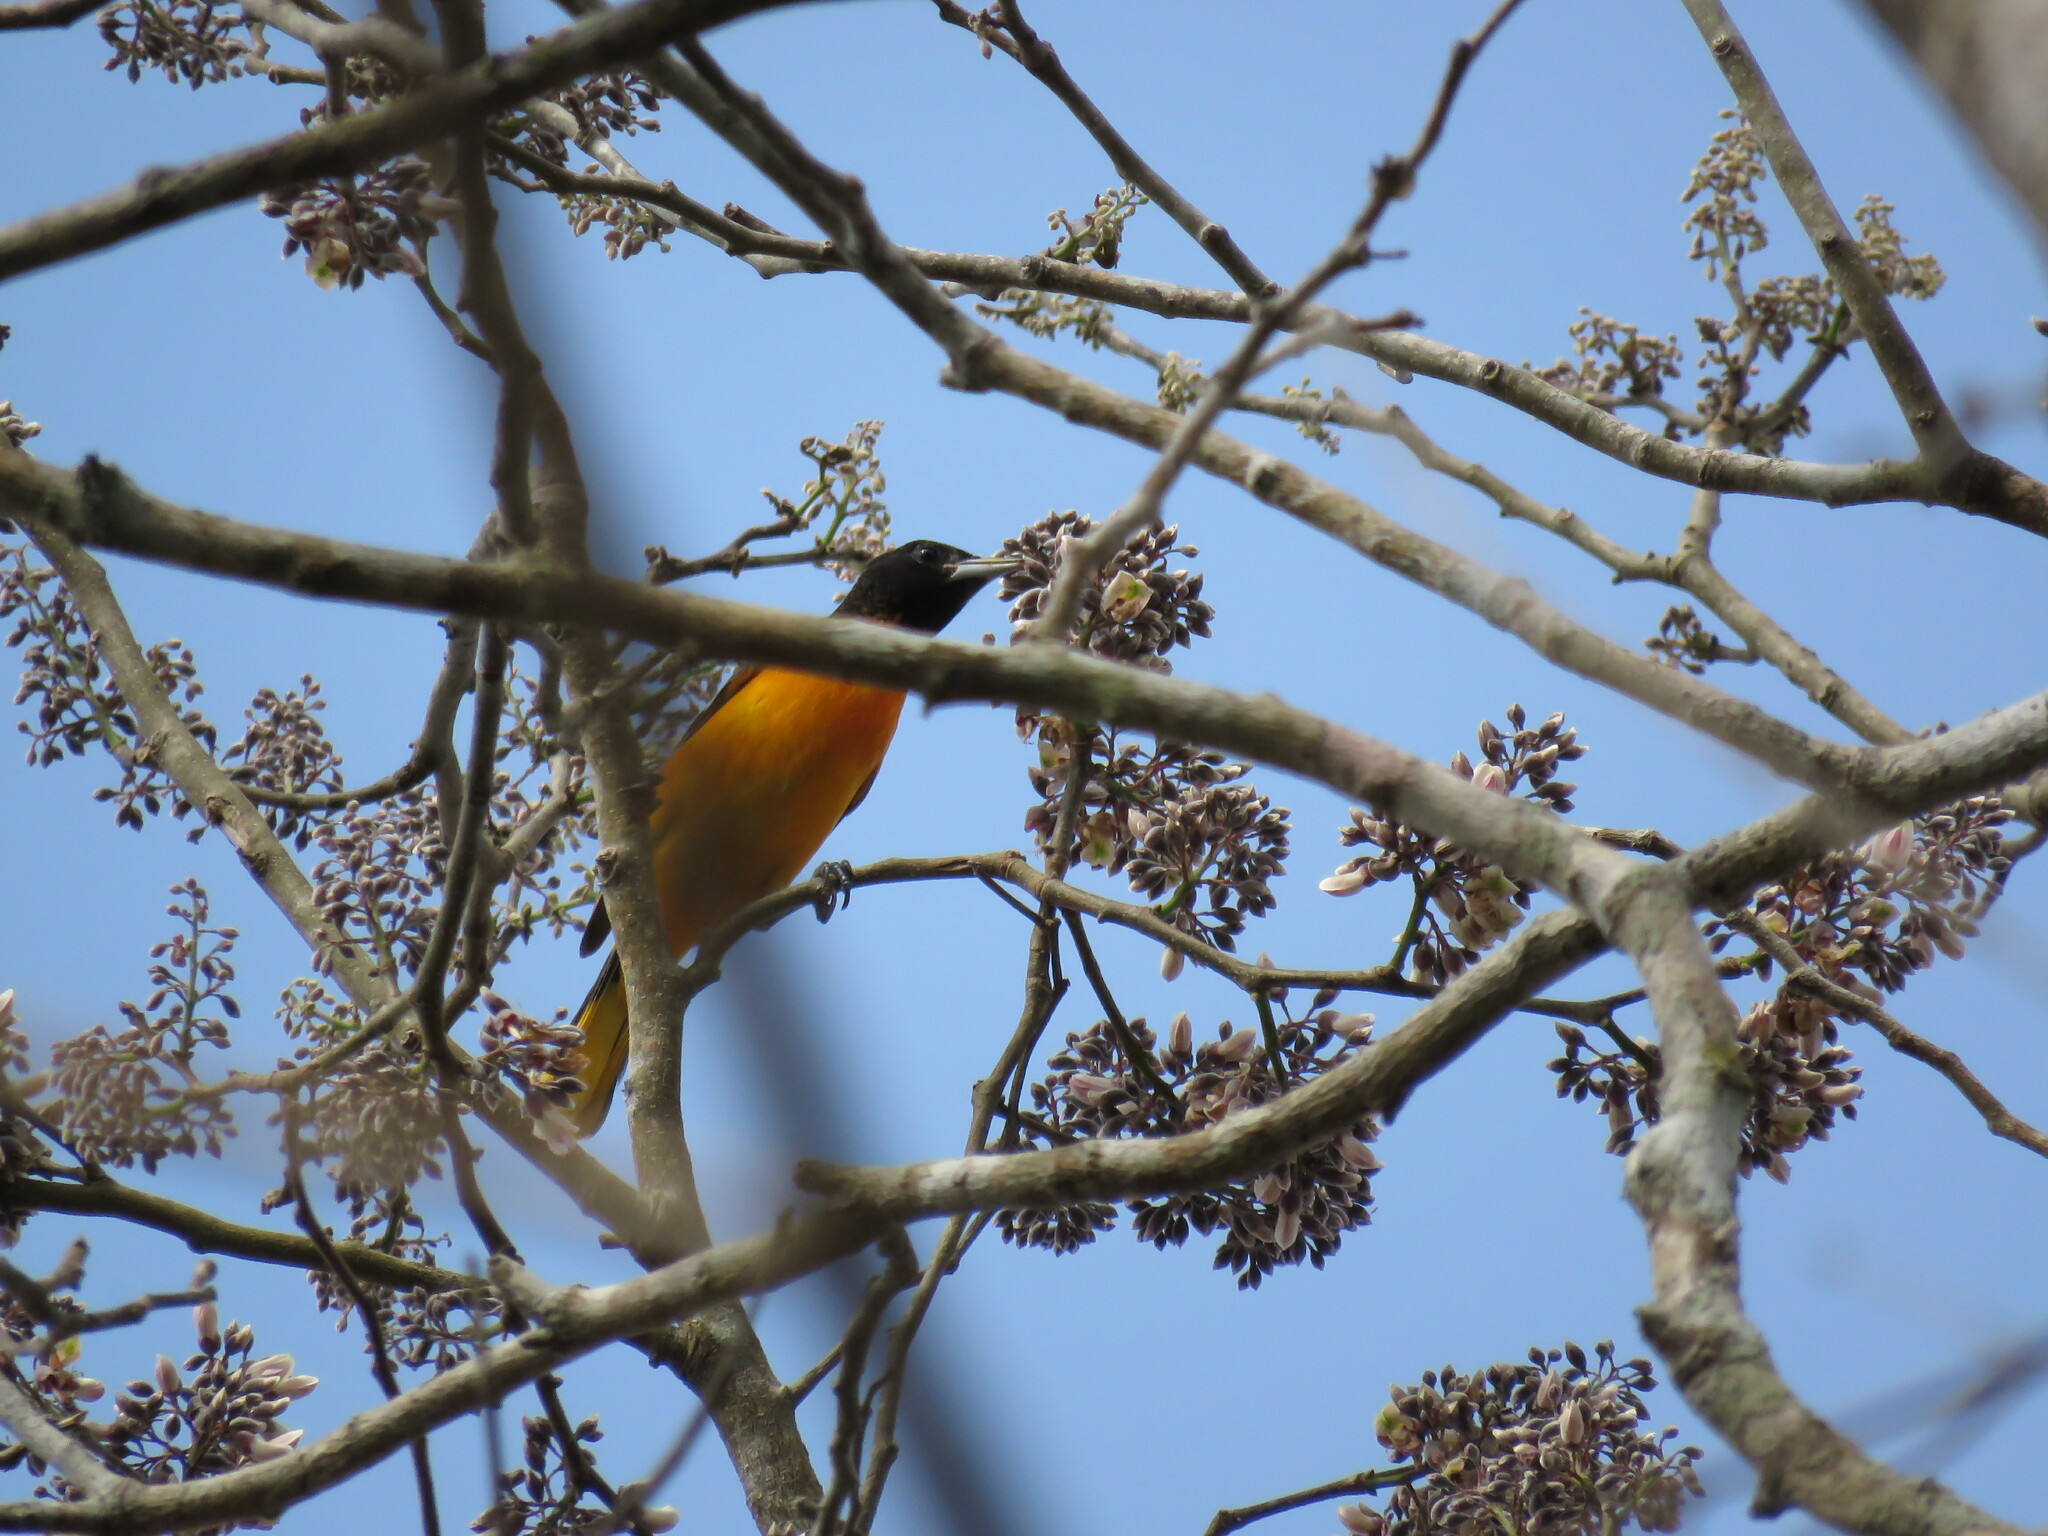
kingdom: Animalia
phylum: Chordata
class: Aves
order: Passeriformes
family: Icteridae
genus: Icterus
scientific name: Icterus galbula
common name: Baltimore oriole
